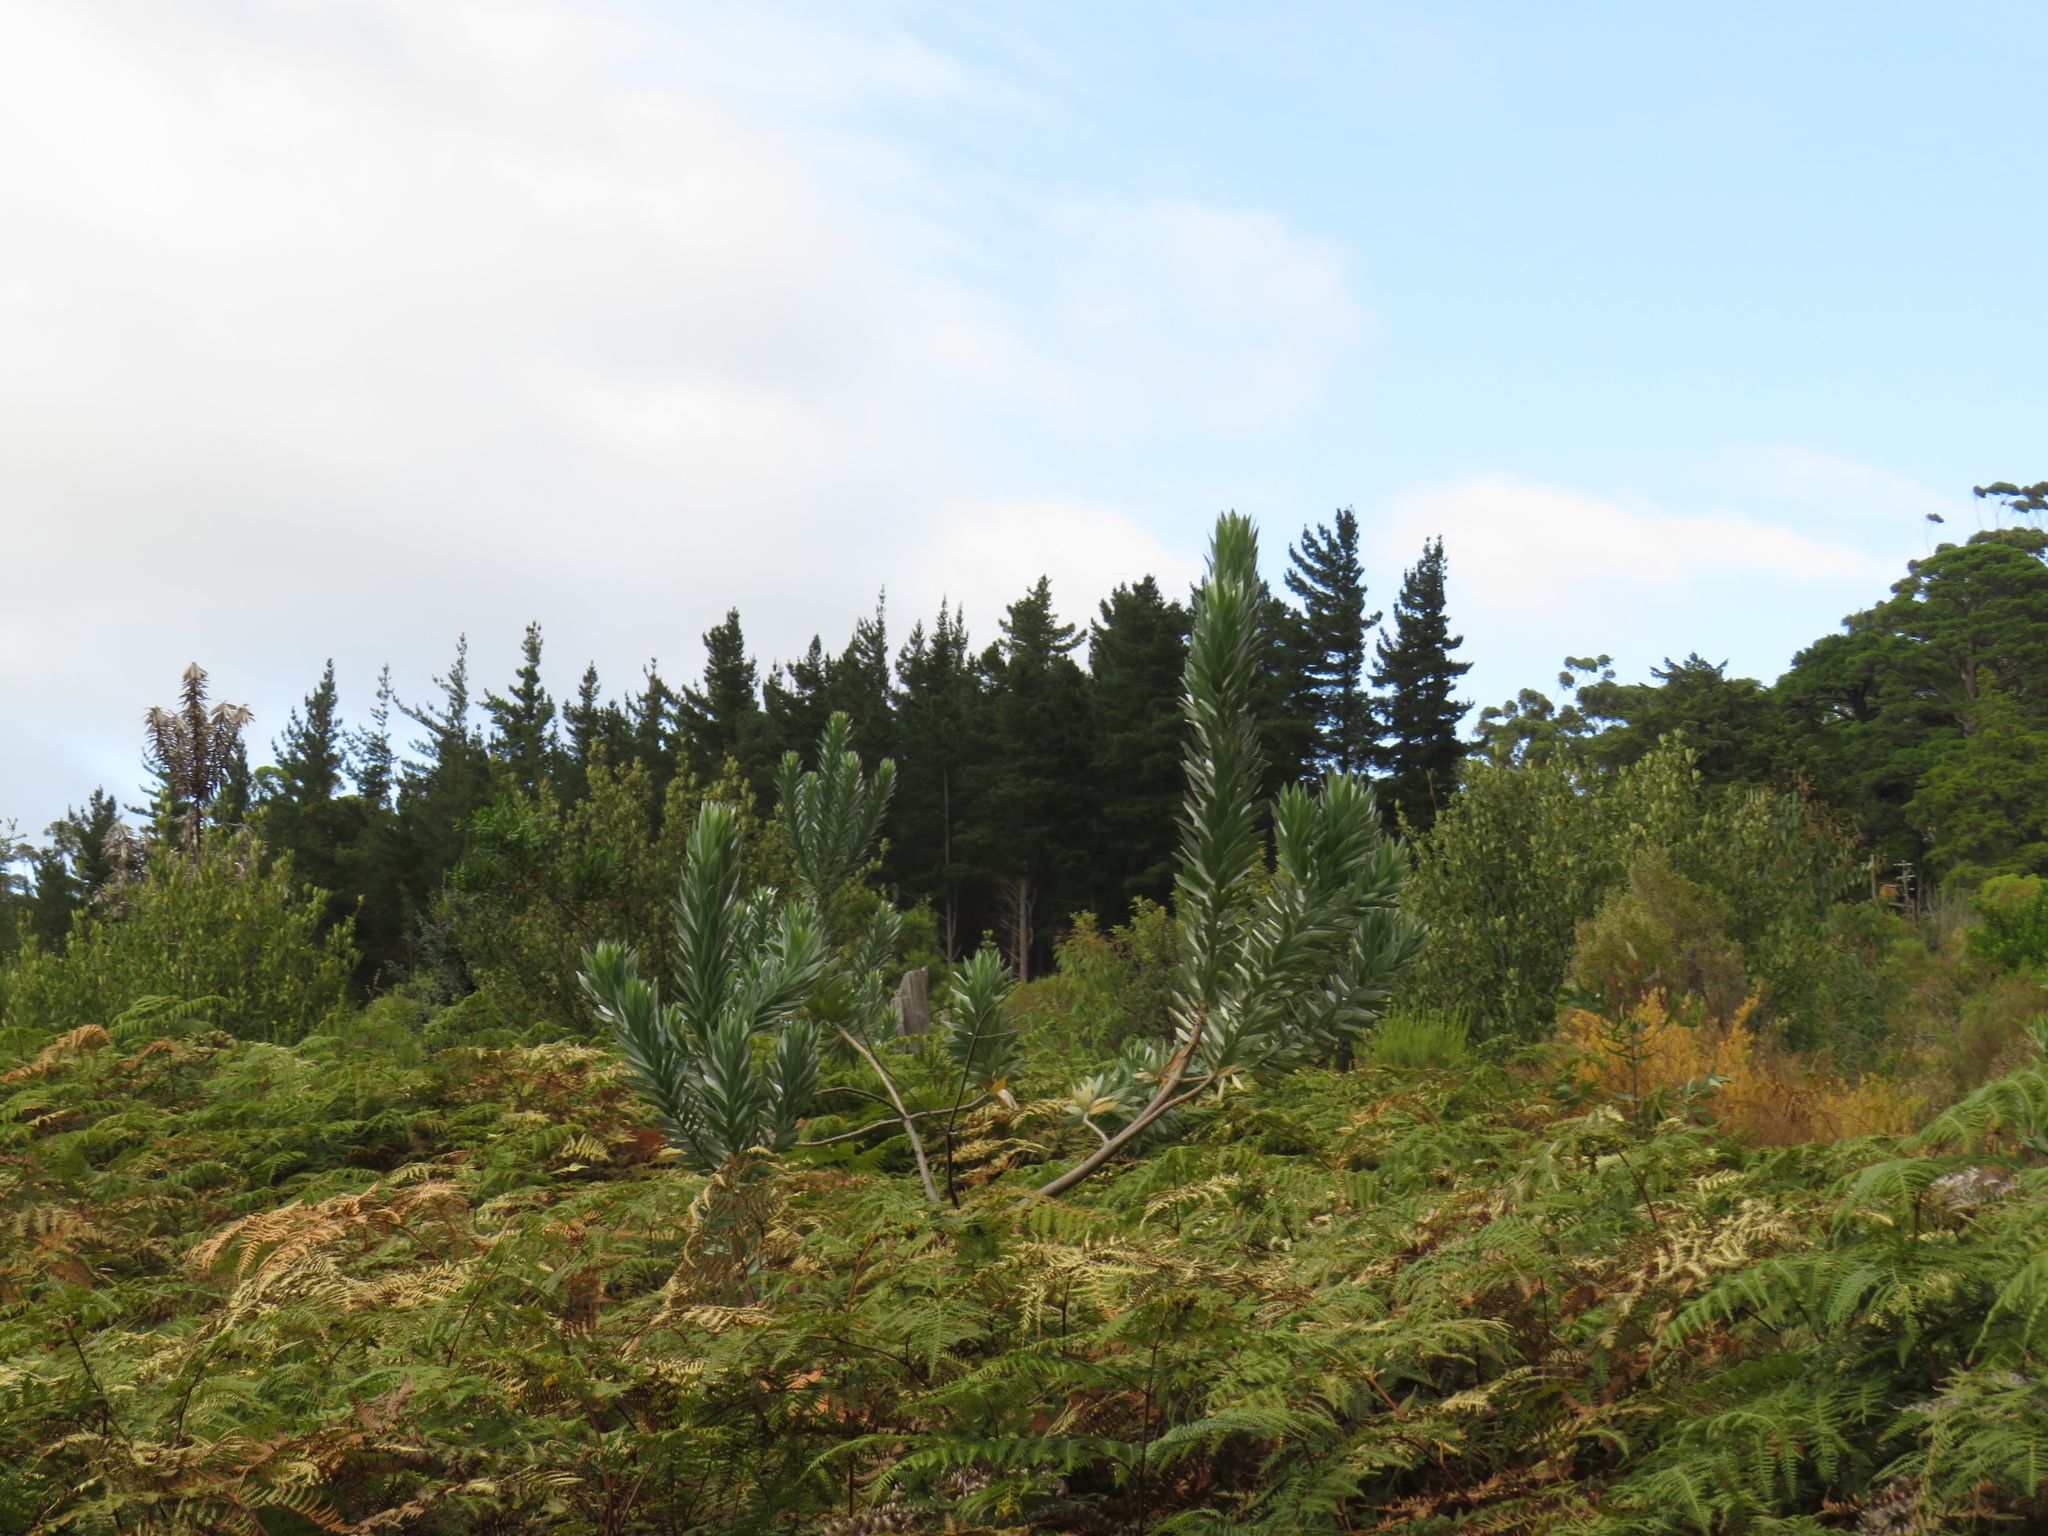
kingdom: Plantae
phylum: Tracheophyta
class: Magnoliopsida
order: Proteales
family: Proteaceae
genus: Leucadendron
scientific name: Leucadendron argenteum
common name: Cape silver tree
